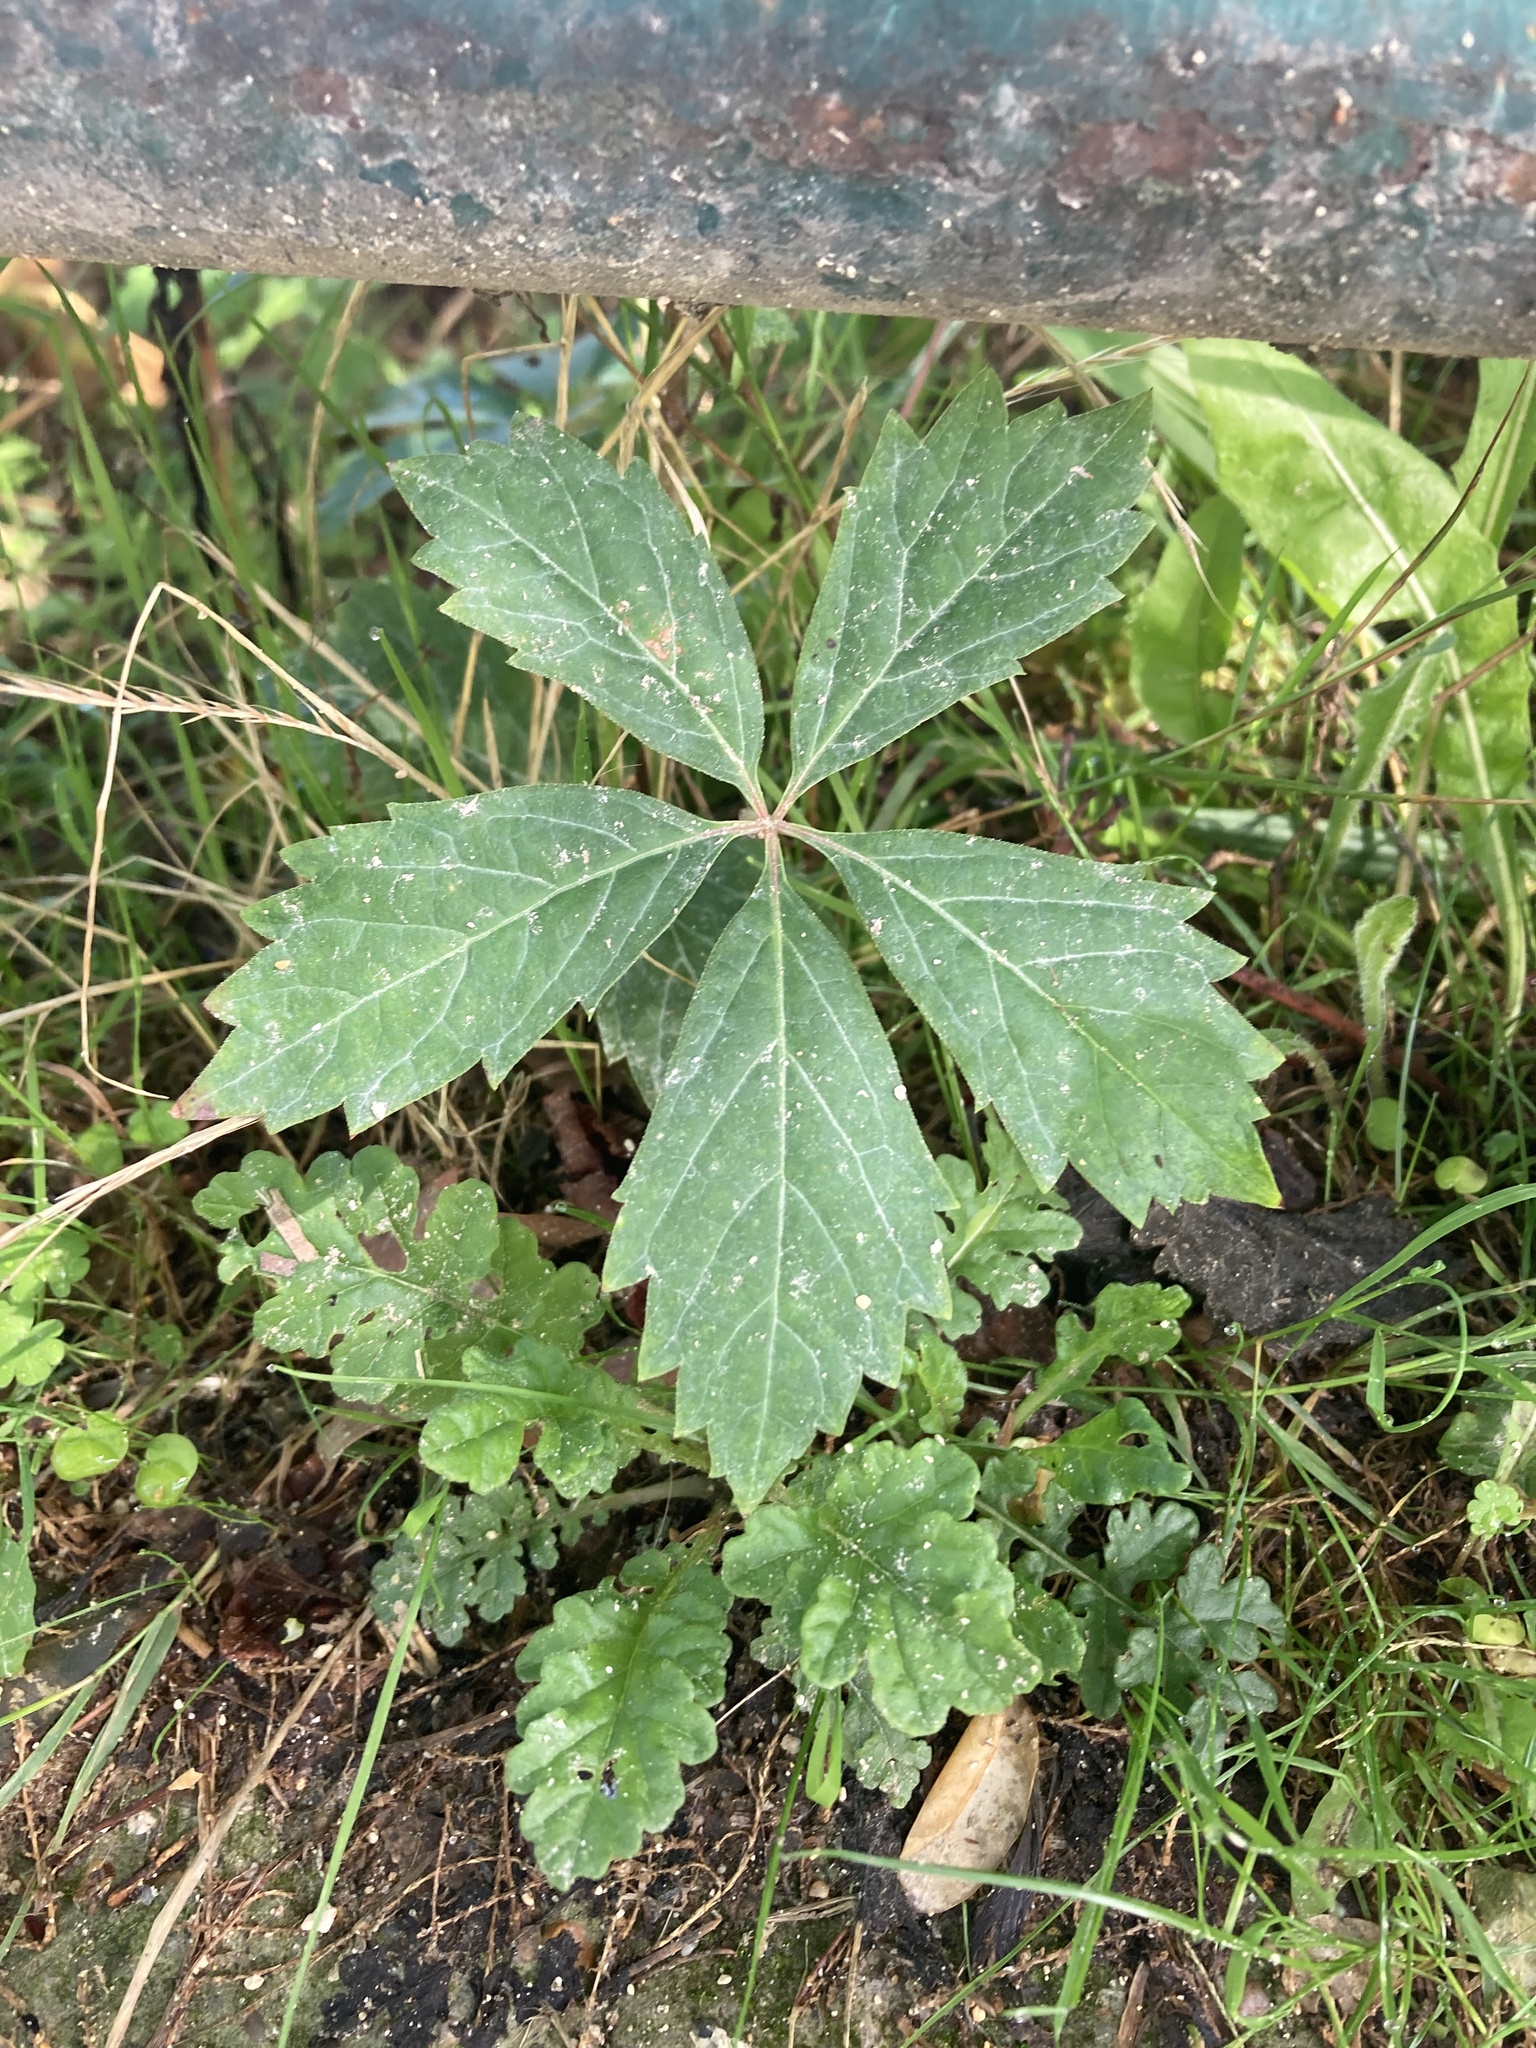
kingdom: Plantae
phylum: Tracheophyta
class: Magnoliopsida
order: Vitales
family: Vitaceae
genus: Parthenocissus
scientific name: Parthenocissus quinquefolia
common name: Virginia-creeper
